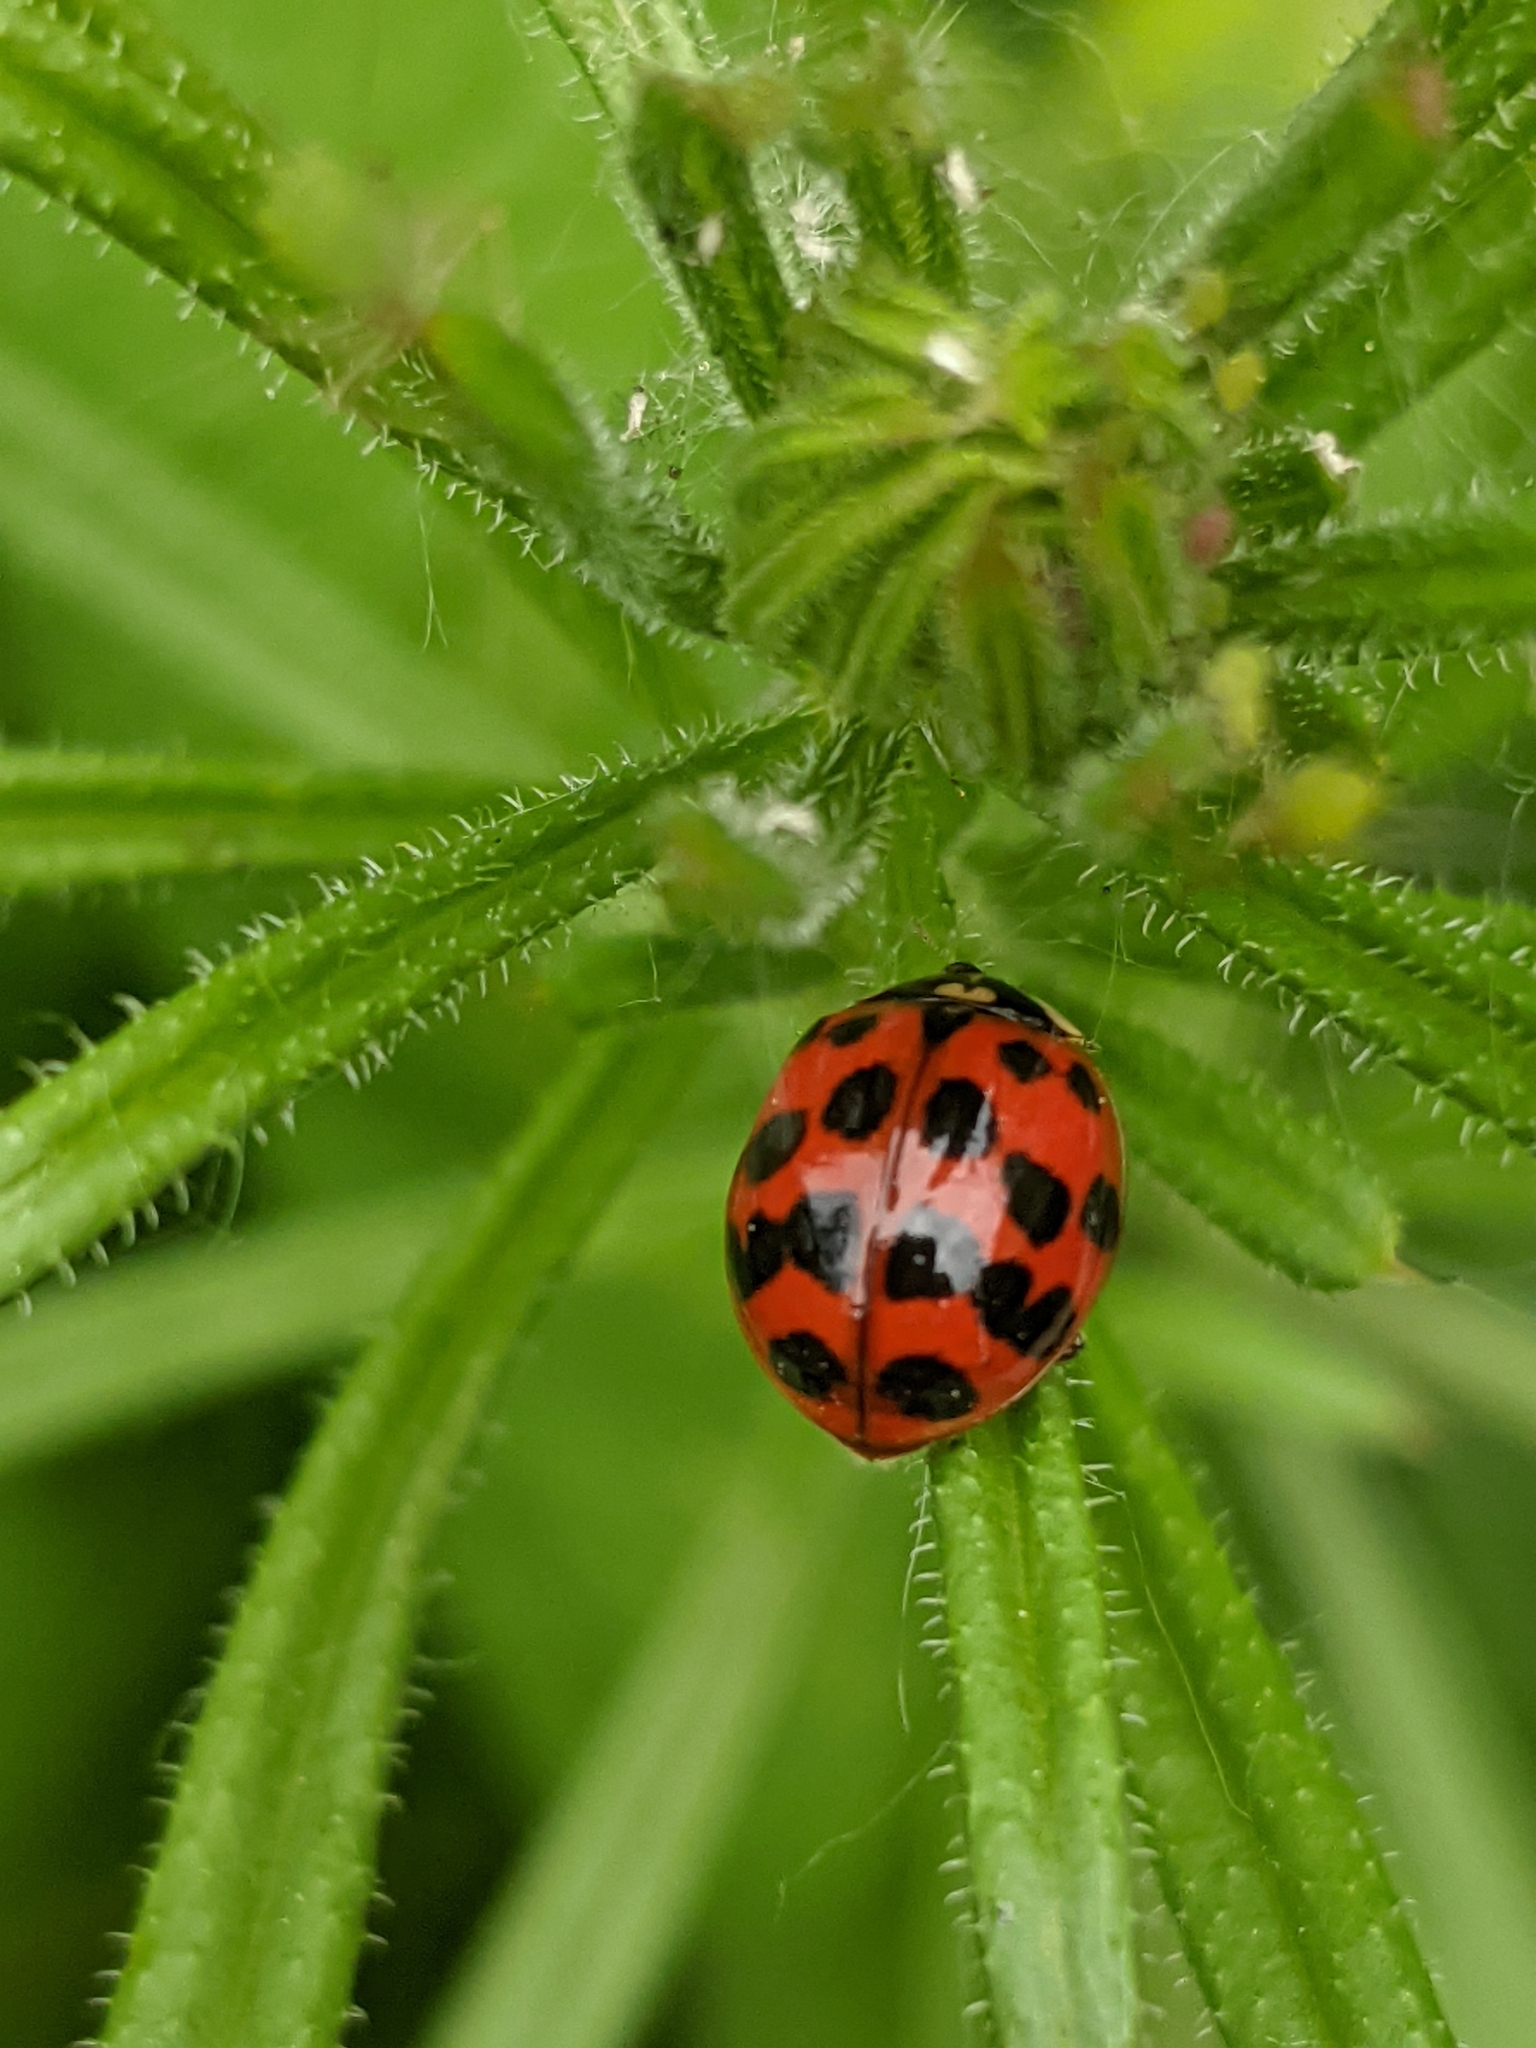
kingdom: Animalia
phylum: Arthropoda
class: Insecta
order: Coleoptera
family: Coccinellidae
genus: Harmonia
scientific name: Harmonia axyridis
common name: Harlequin ladybird
